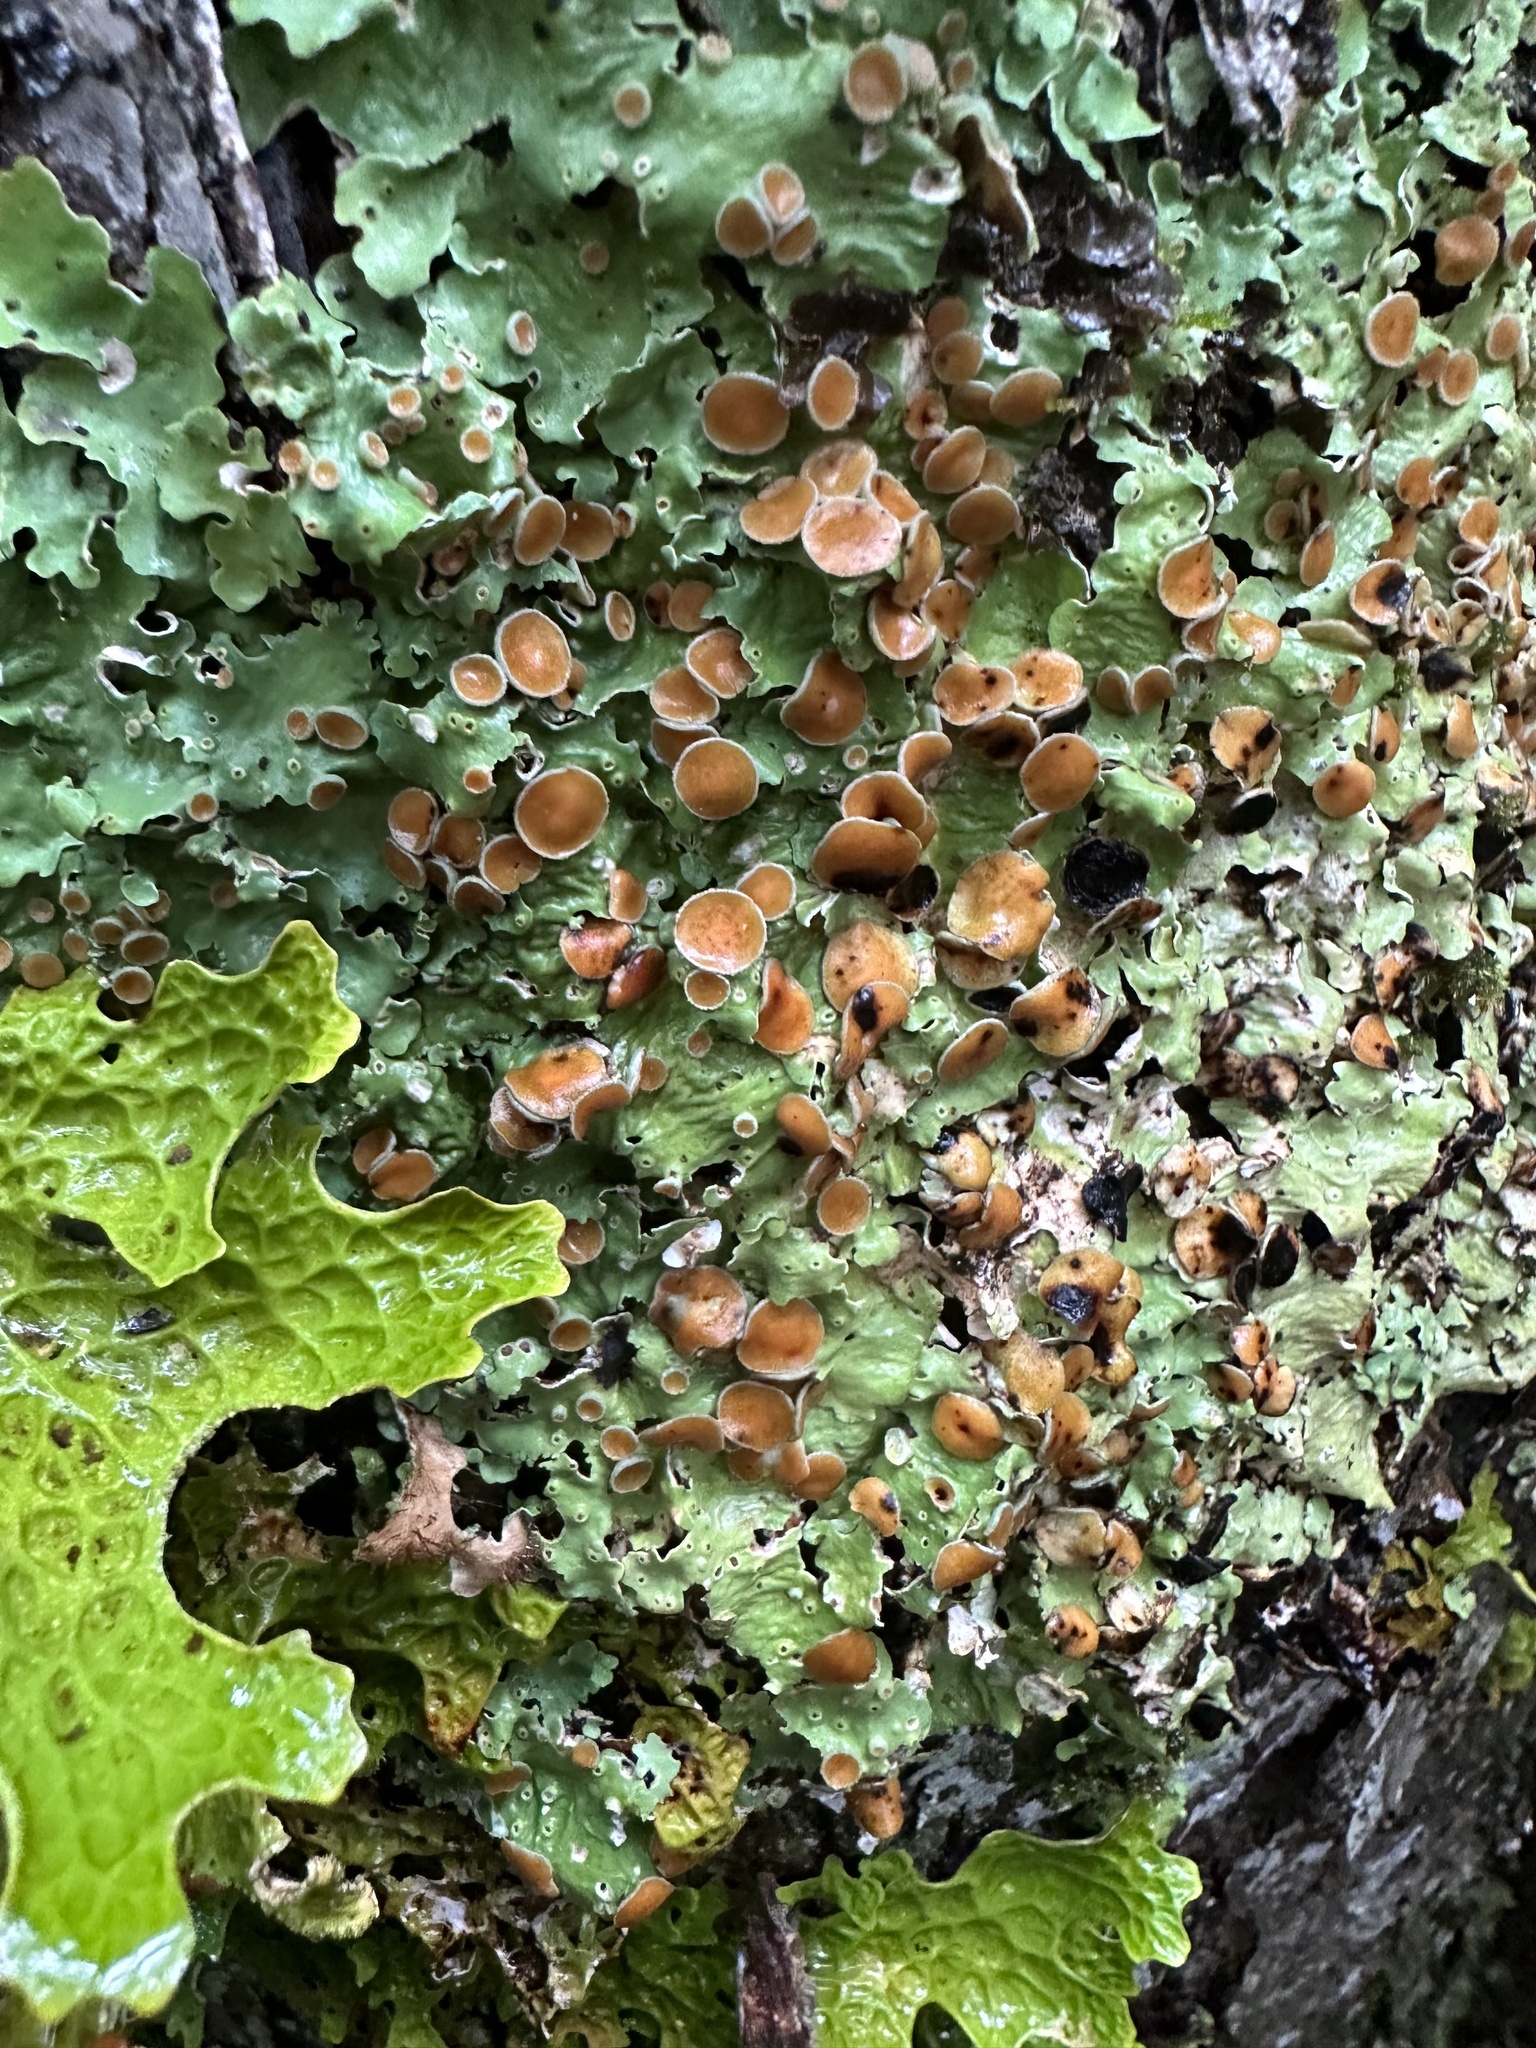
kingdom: Fungi
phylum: Ascomycota
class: Lecanoromycetes
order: Peltigerales
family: Lobariaceae
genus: Ricasolia
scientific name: Ricasolia quercizans
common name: Smooth lungwort
